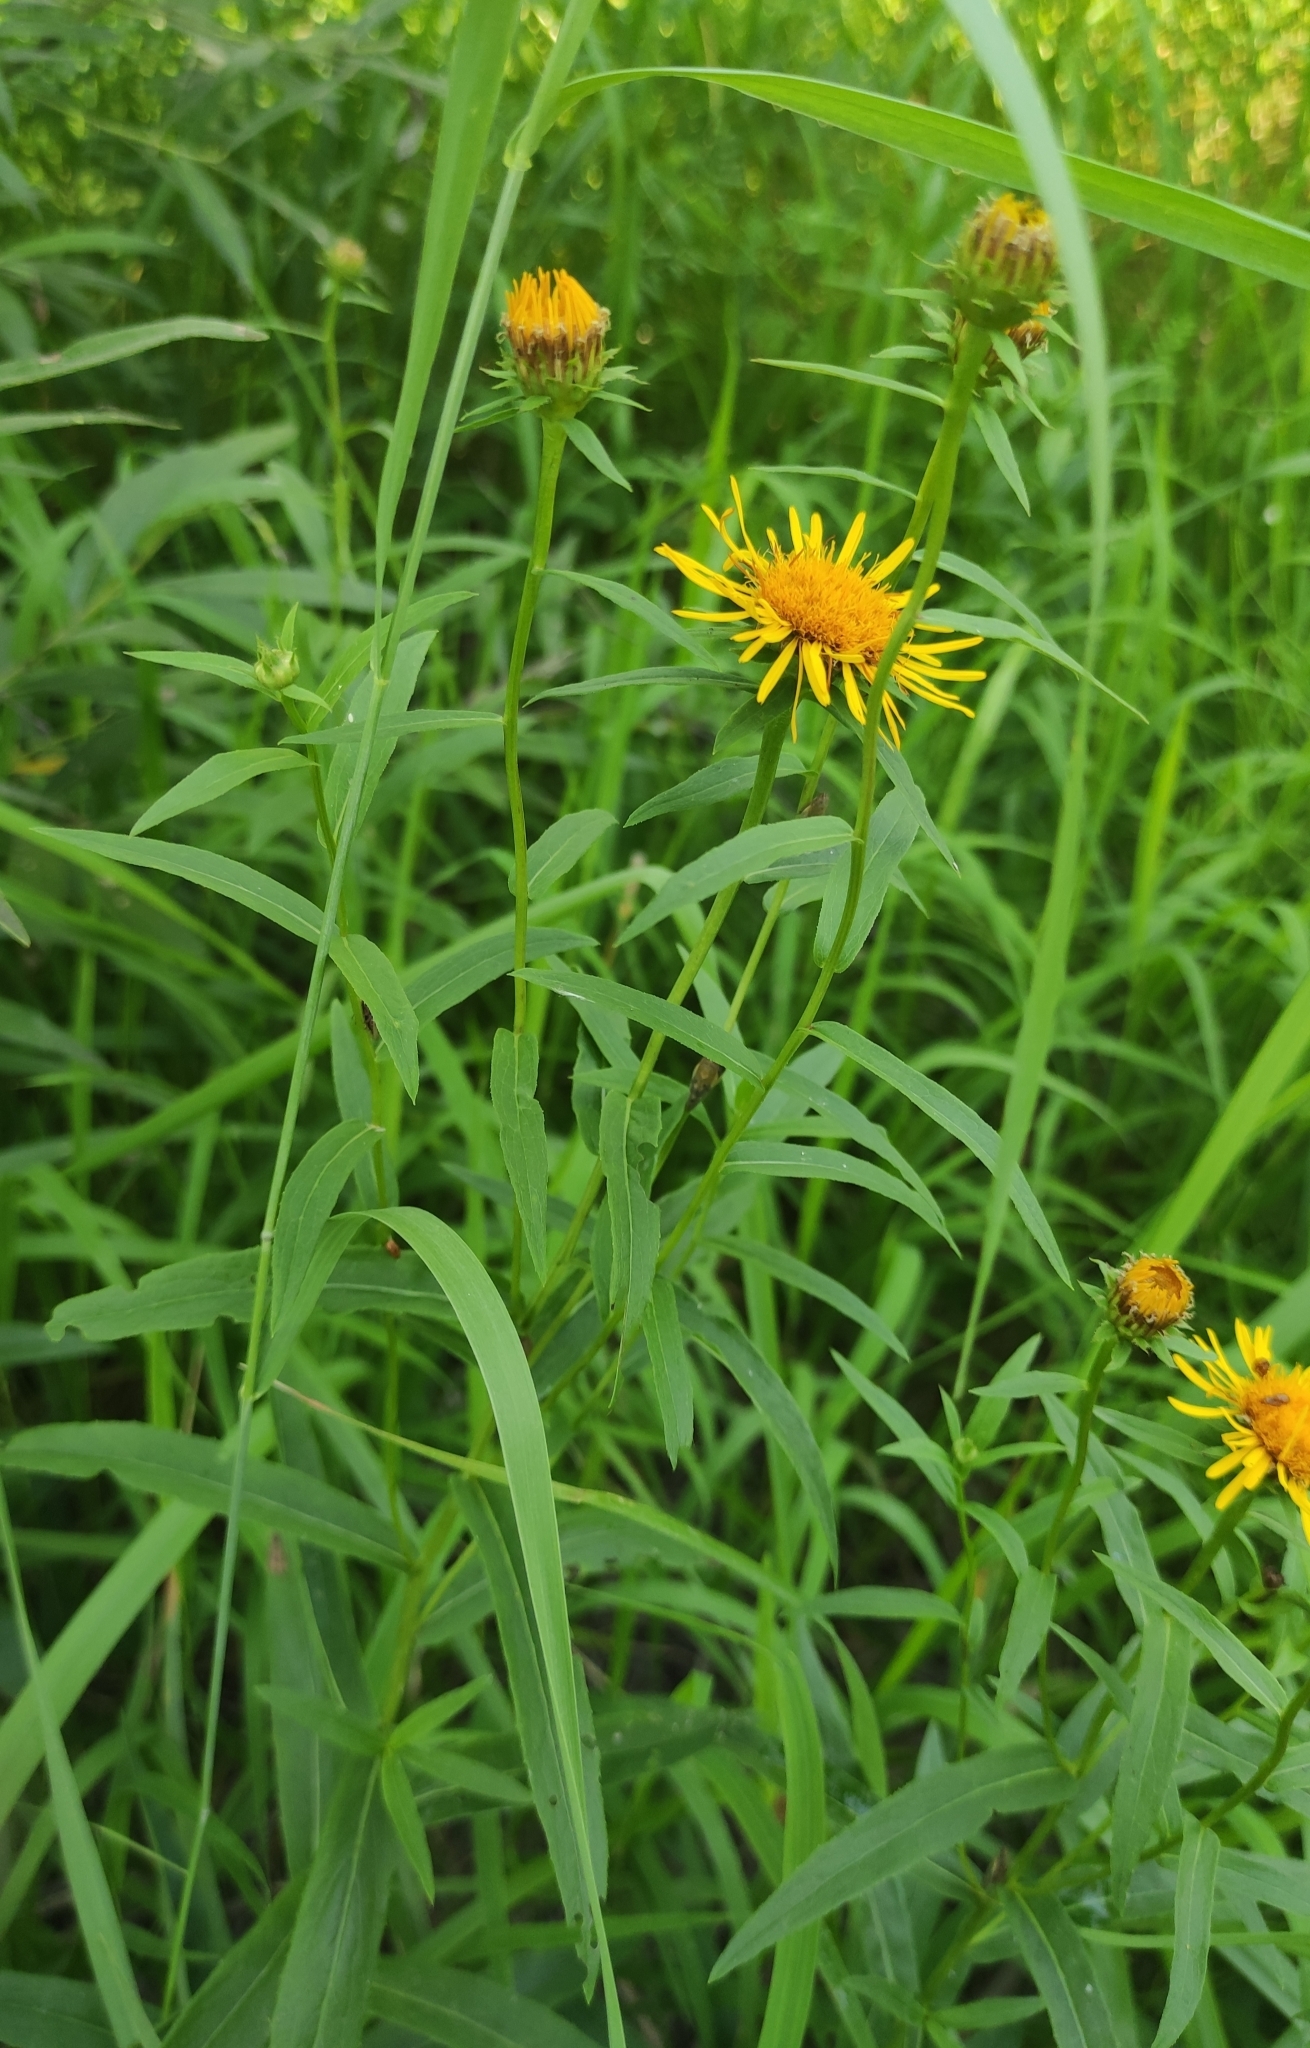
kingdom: Plantae
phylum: Tracheophyta
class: Magnoliopsida
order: Asterales
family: Asteraceae
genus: Pentanema
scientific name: Pentanema salicinum
